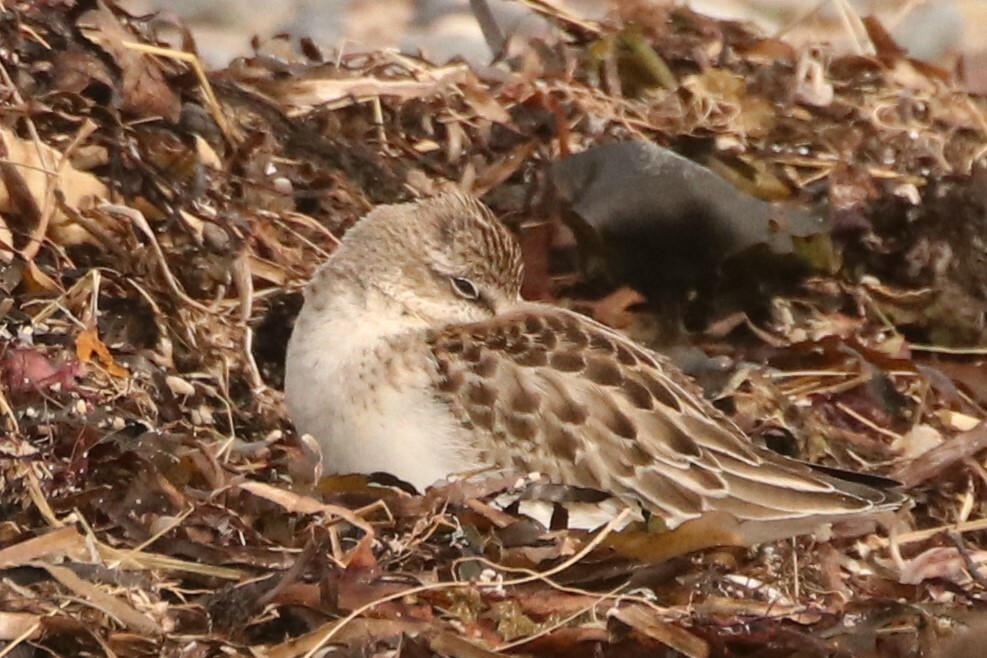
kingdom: Animalia
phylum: Chordata
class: Aves
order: Charadriiformes
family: Scolopacidae
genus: Calidris
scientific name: Calidris pusilla
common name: Semipalmated sandpiper
